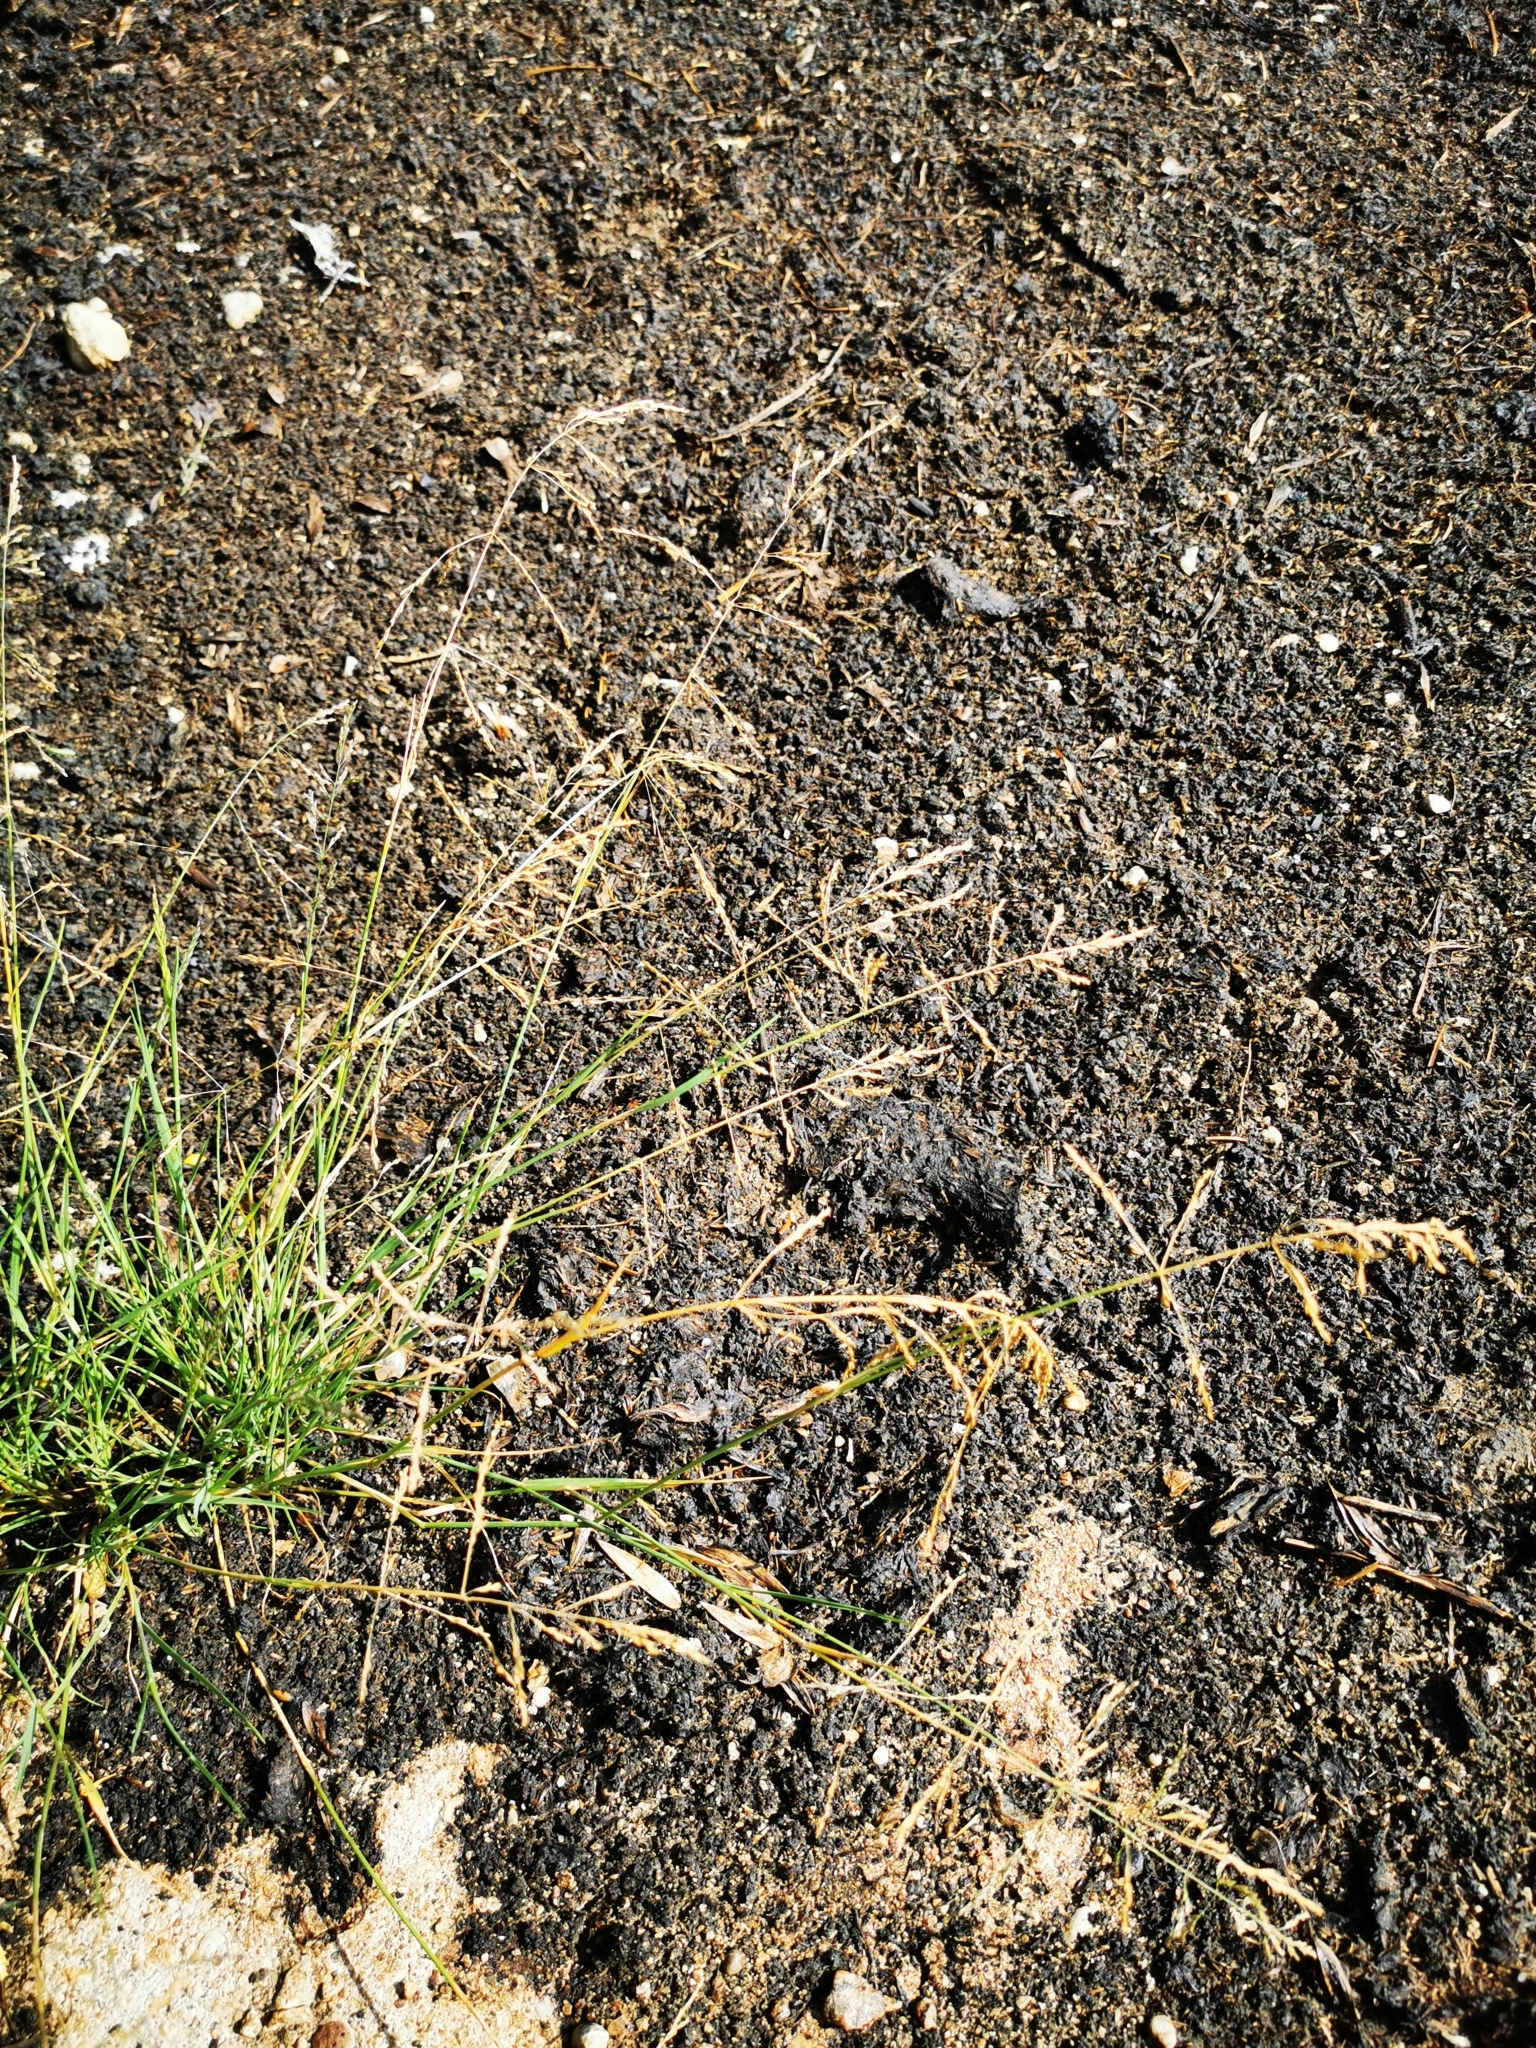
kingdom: Plantae
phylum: Tracheophyta
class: Liliopsida
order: Poales
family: Poaceae
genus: Puccinellia
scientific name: Puccinellia distans
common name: Weeping alkaligrass
